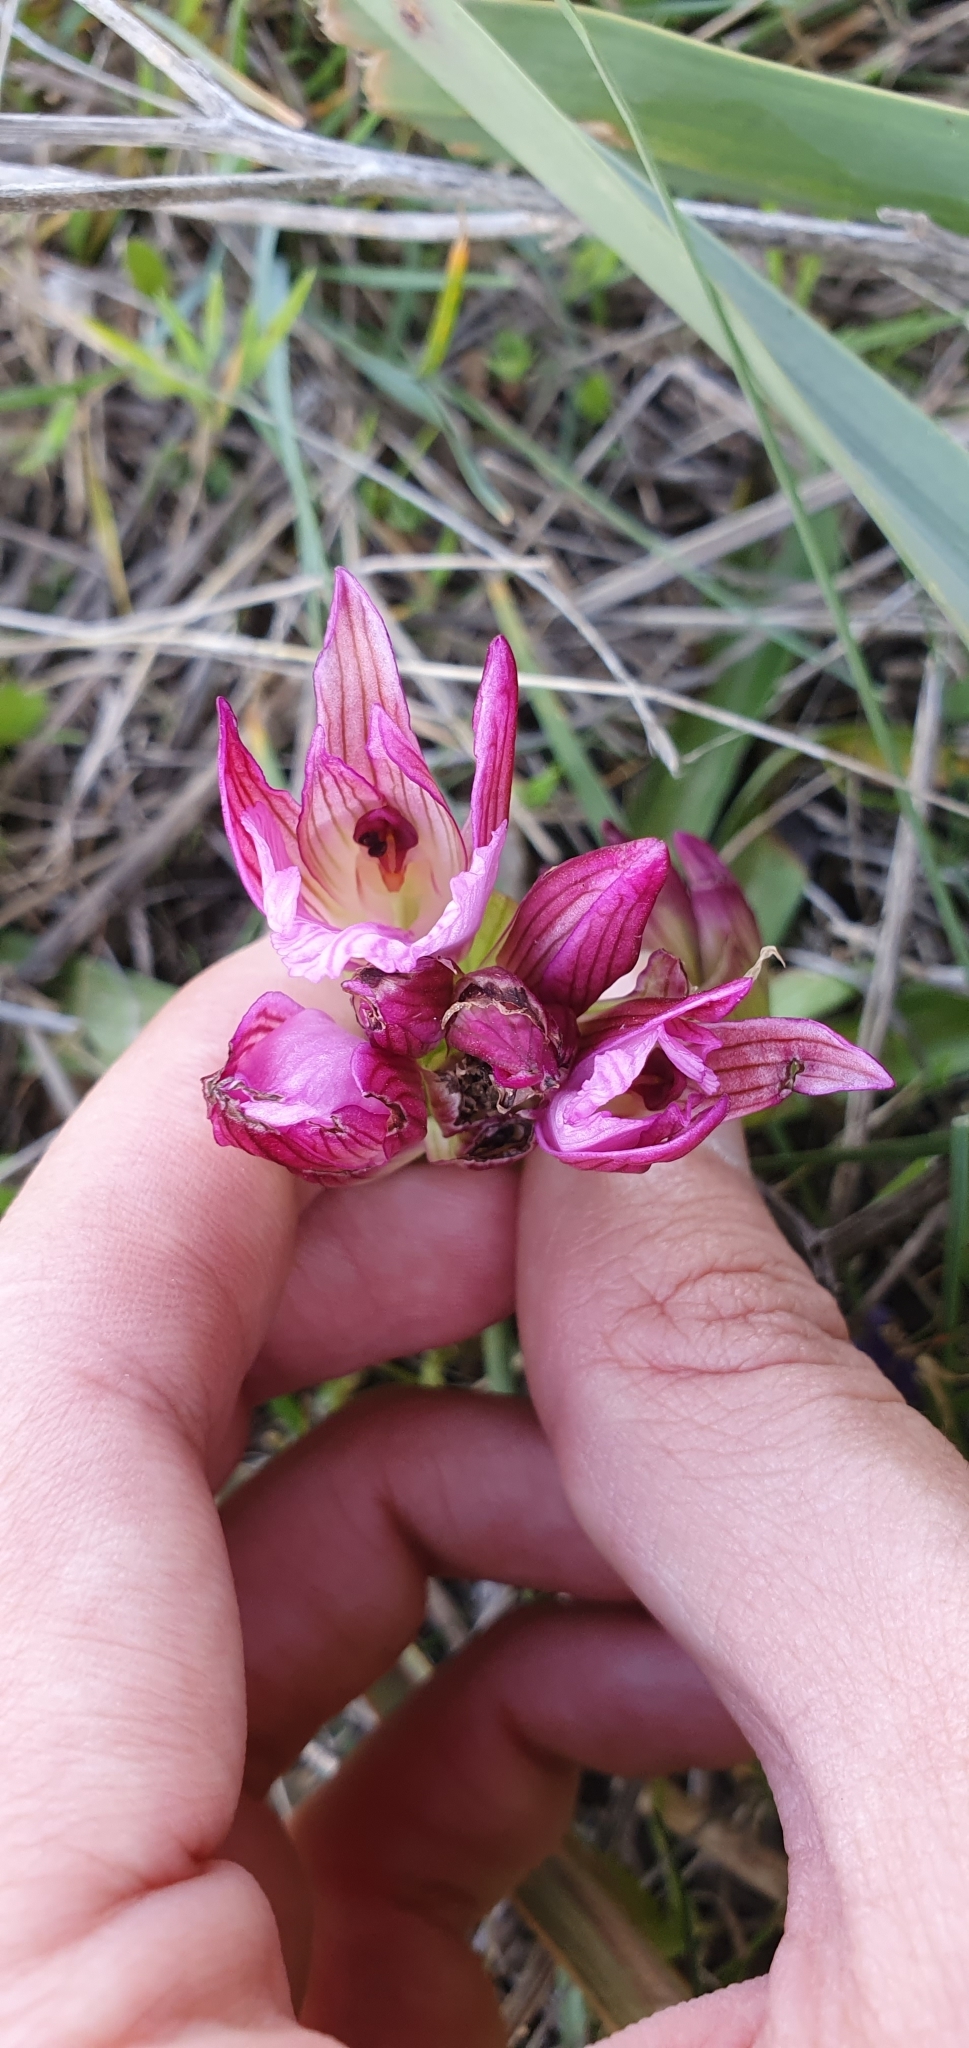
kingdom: Plantae
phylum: Tracheophyta
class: Liliopsida
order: Asparagales
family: Orchidaceae
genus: Anacamptis
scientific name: Anacamptis papilionacea
